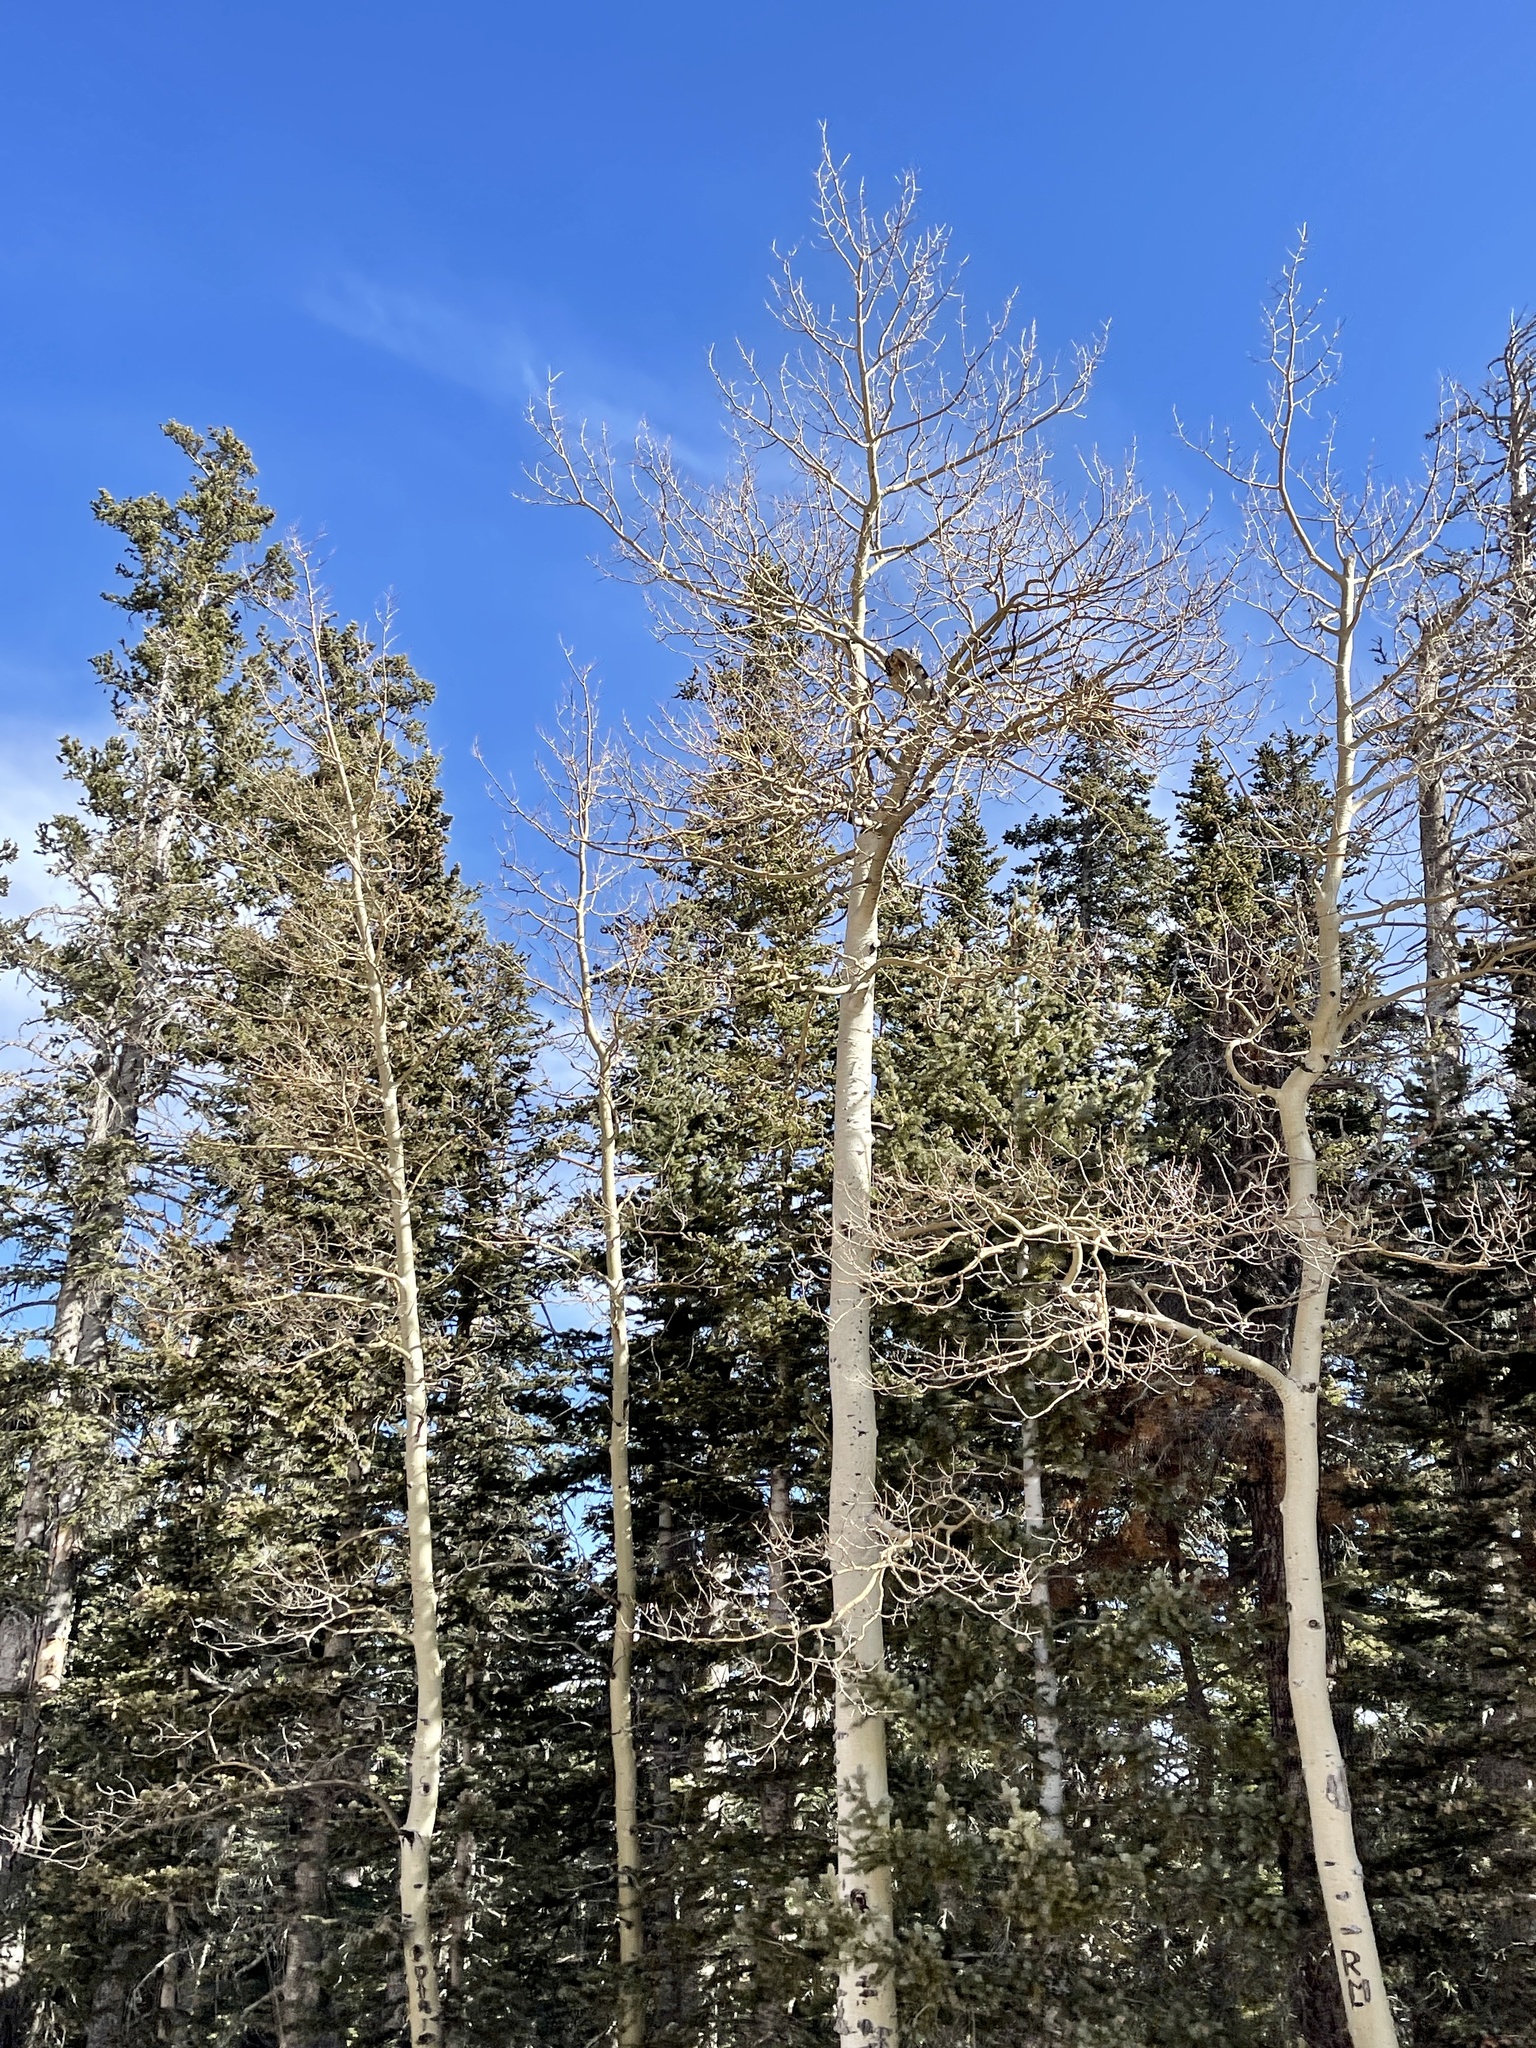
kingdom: Plantae
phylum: Tracheophyta
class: Magnoliopsida
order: Malpighiales
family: Salicaceae
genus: Populus
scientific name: Populus tremuloides
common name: Quaking aspen
